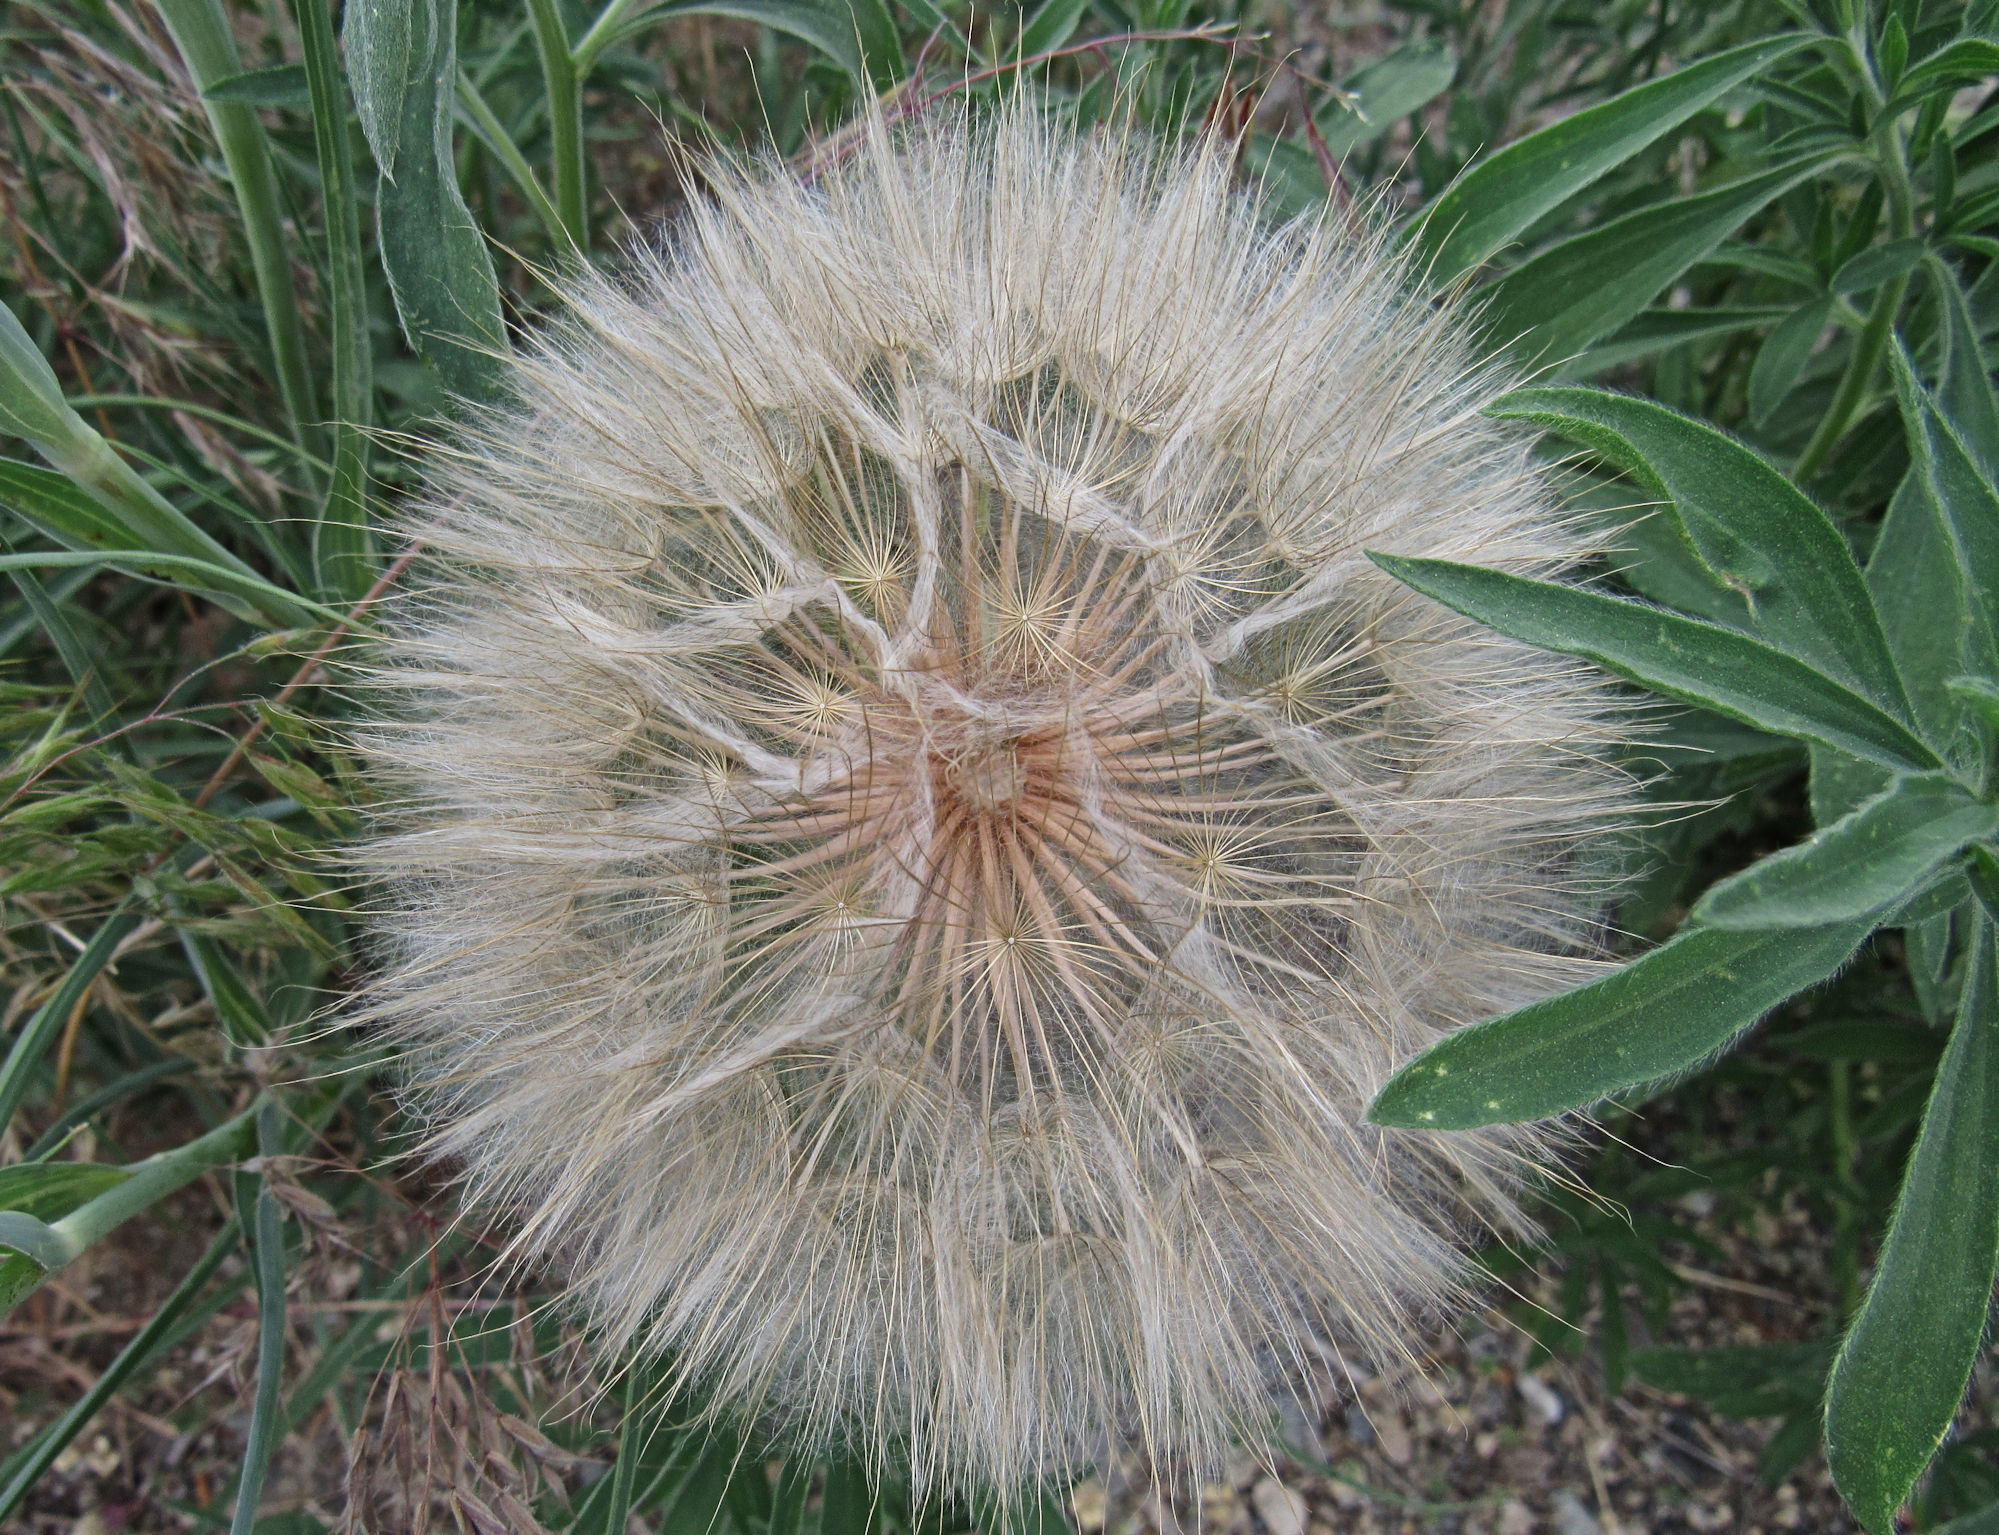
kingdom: Plantae
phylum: Tracheophyta
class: Magnoliopsida
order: Asterales
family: Asteraceae
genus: Tragopogon
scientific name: Tragopogon dubius
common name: Yellow salsify
